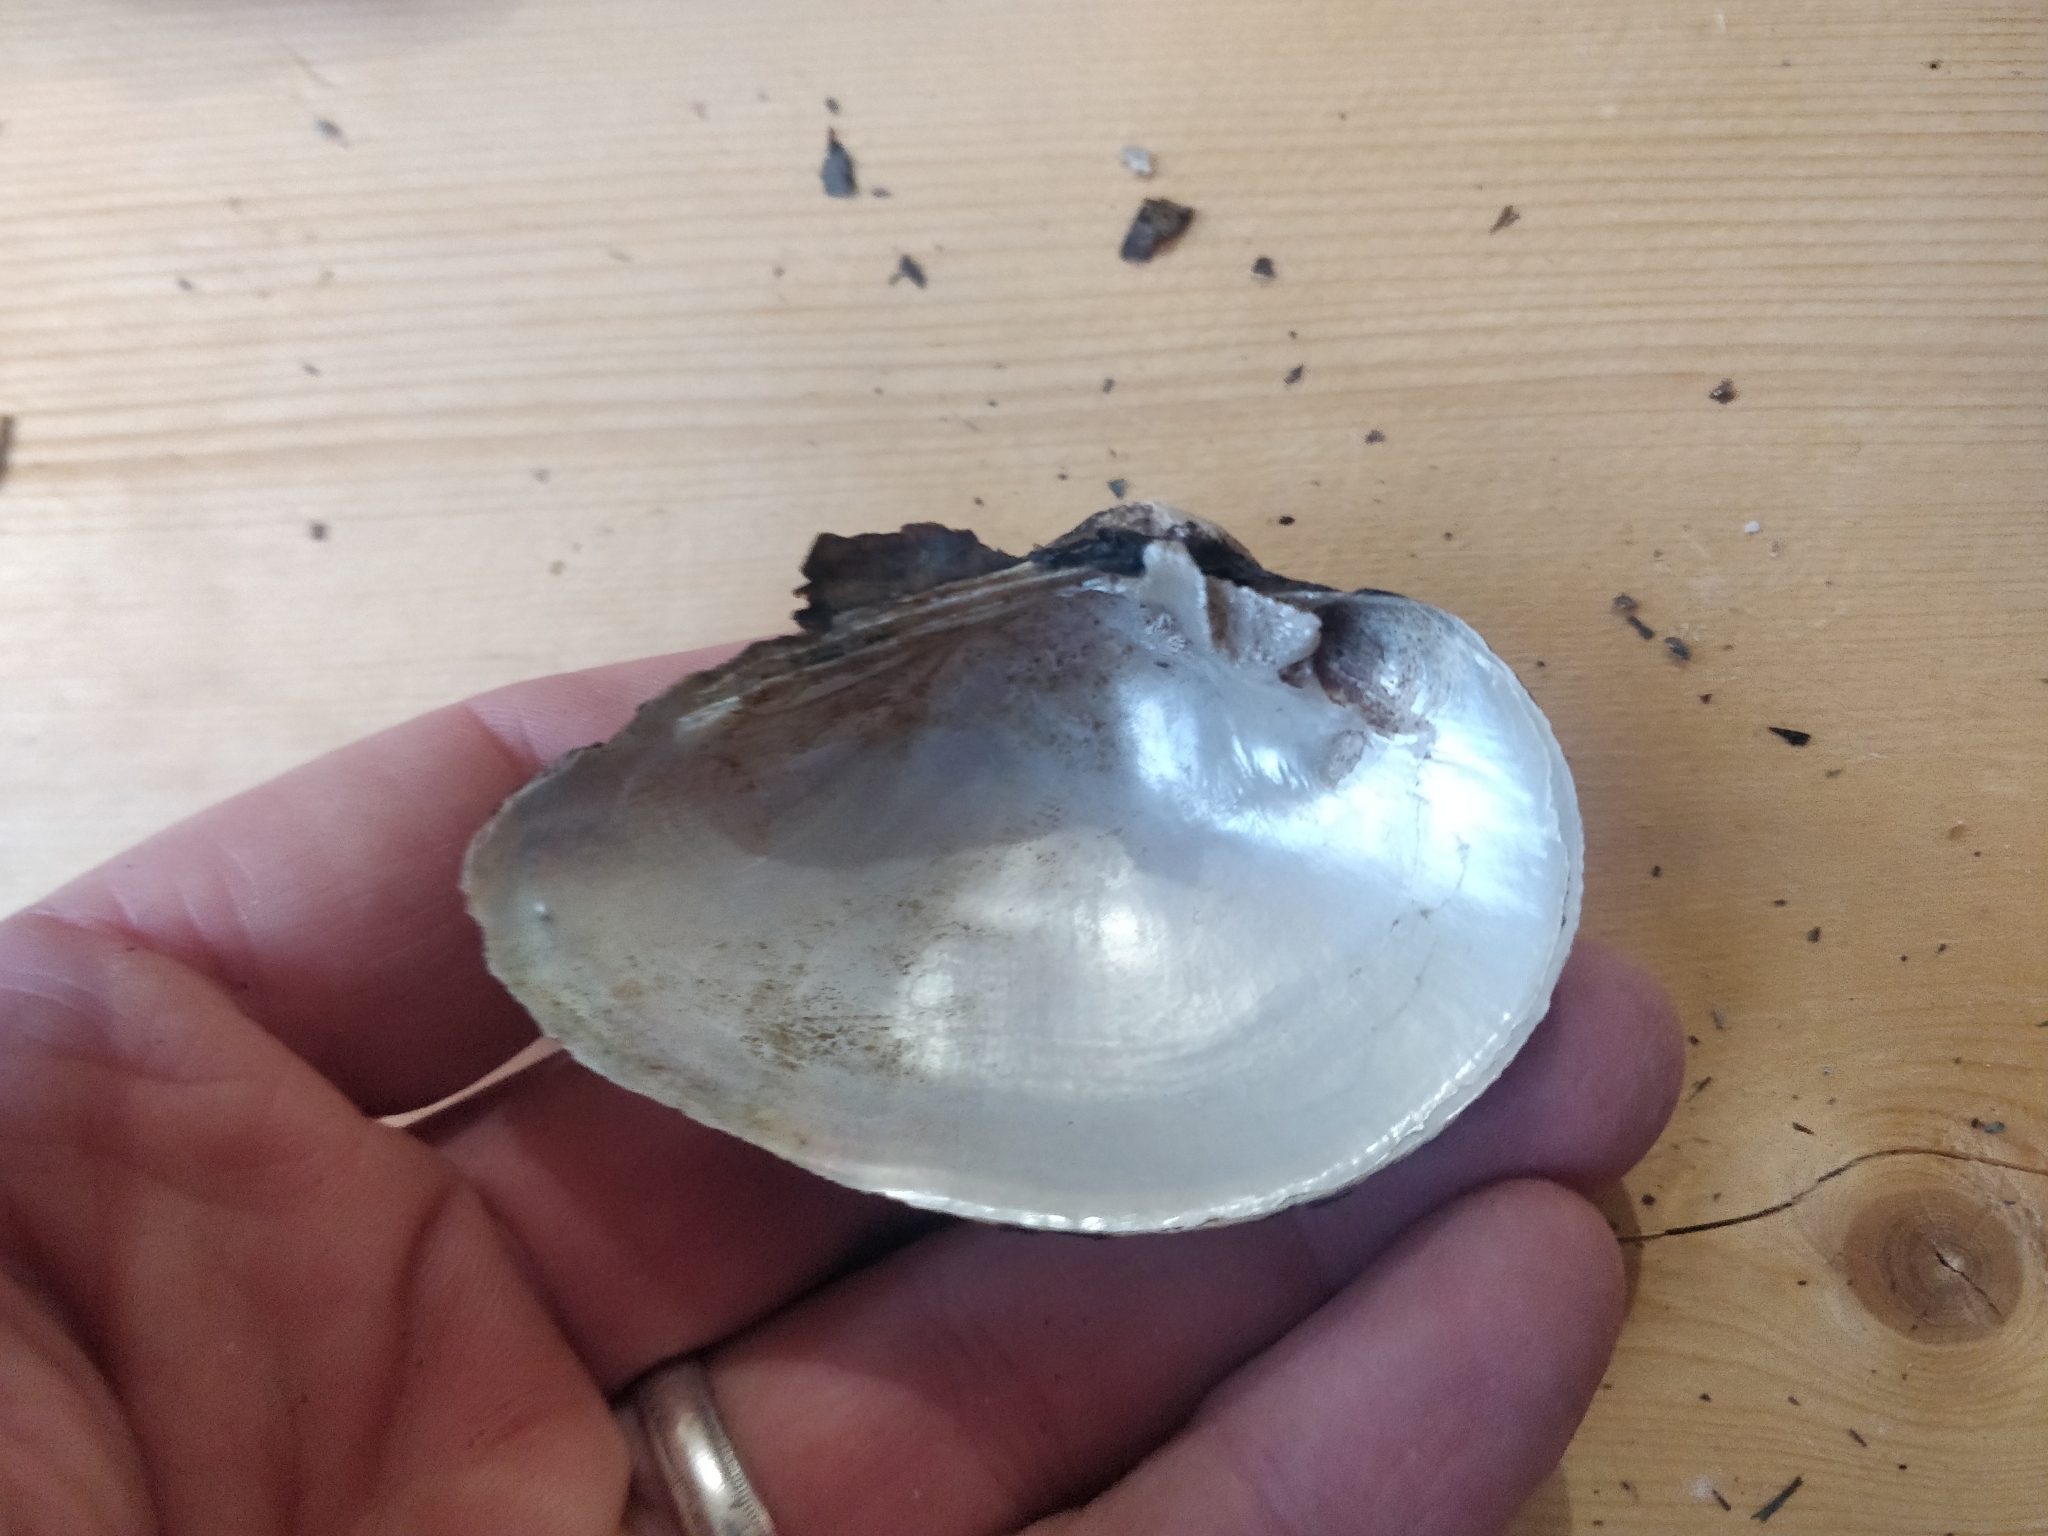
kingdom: Animalia
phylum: Mollusca
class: Bivalvia
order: Unionida
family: Unionidae
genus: Truncilla
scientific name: Truncilla truncata
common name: Deertoe
